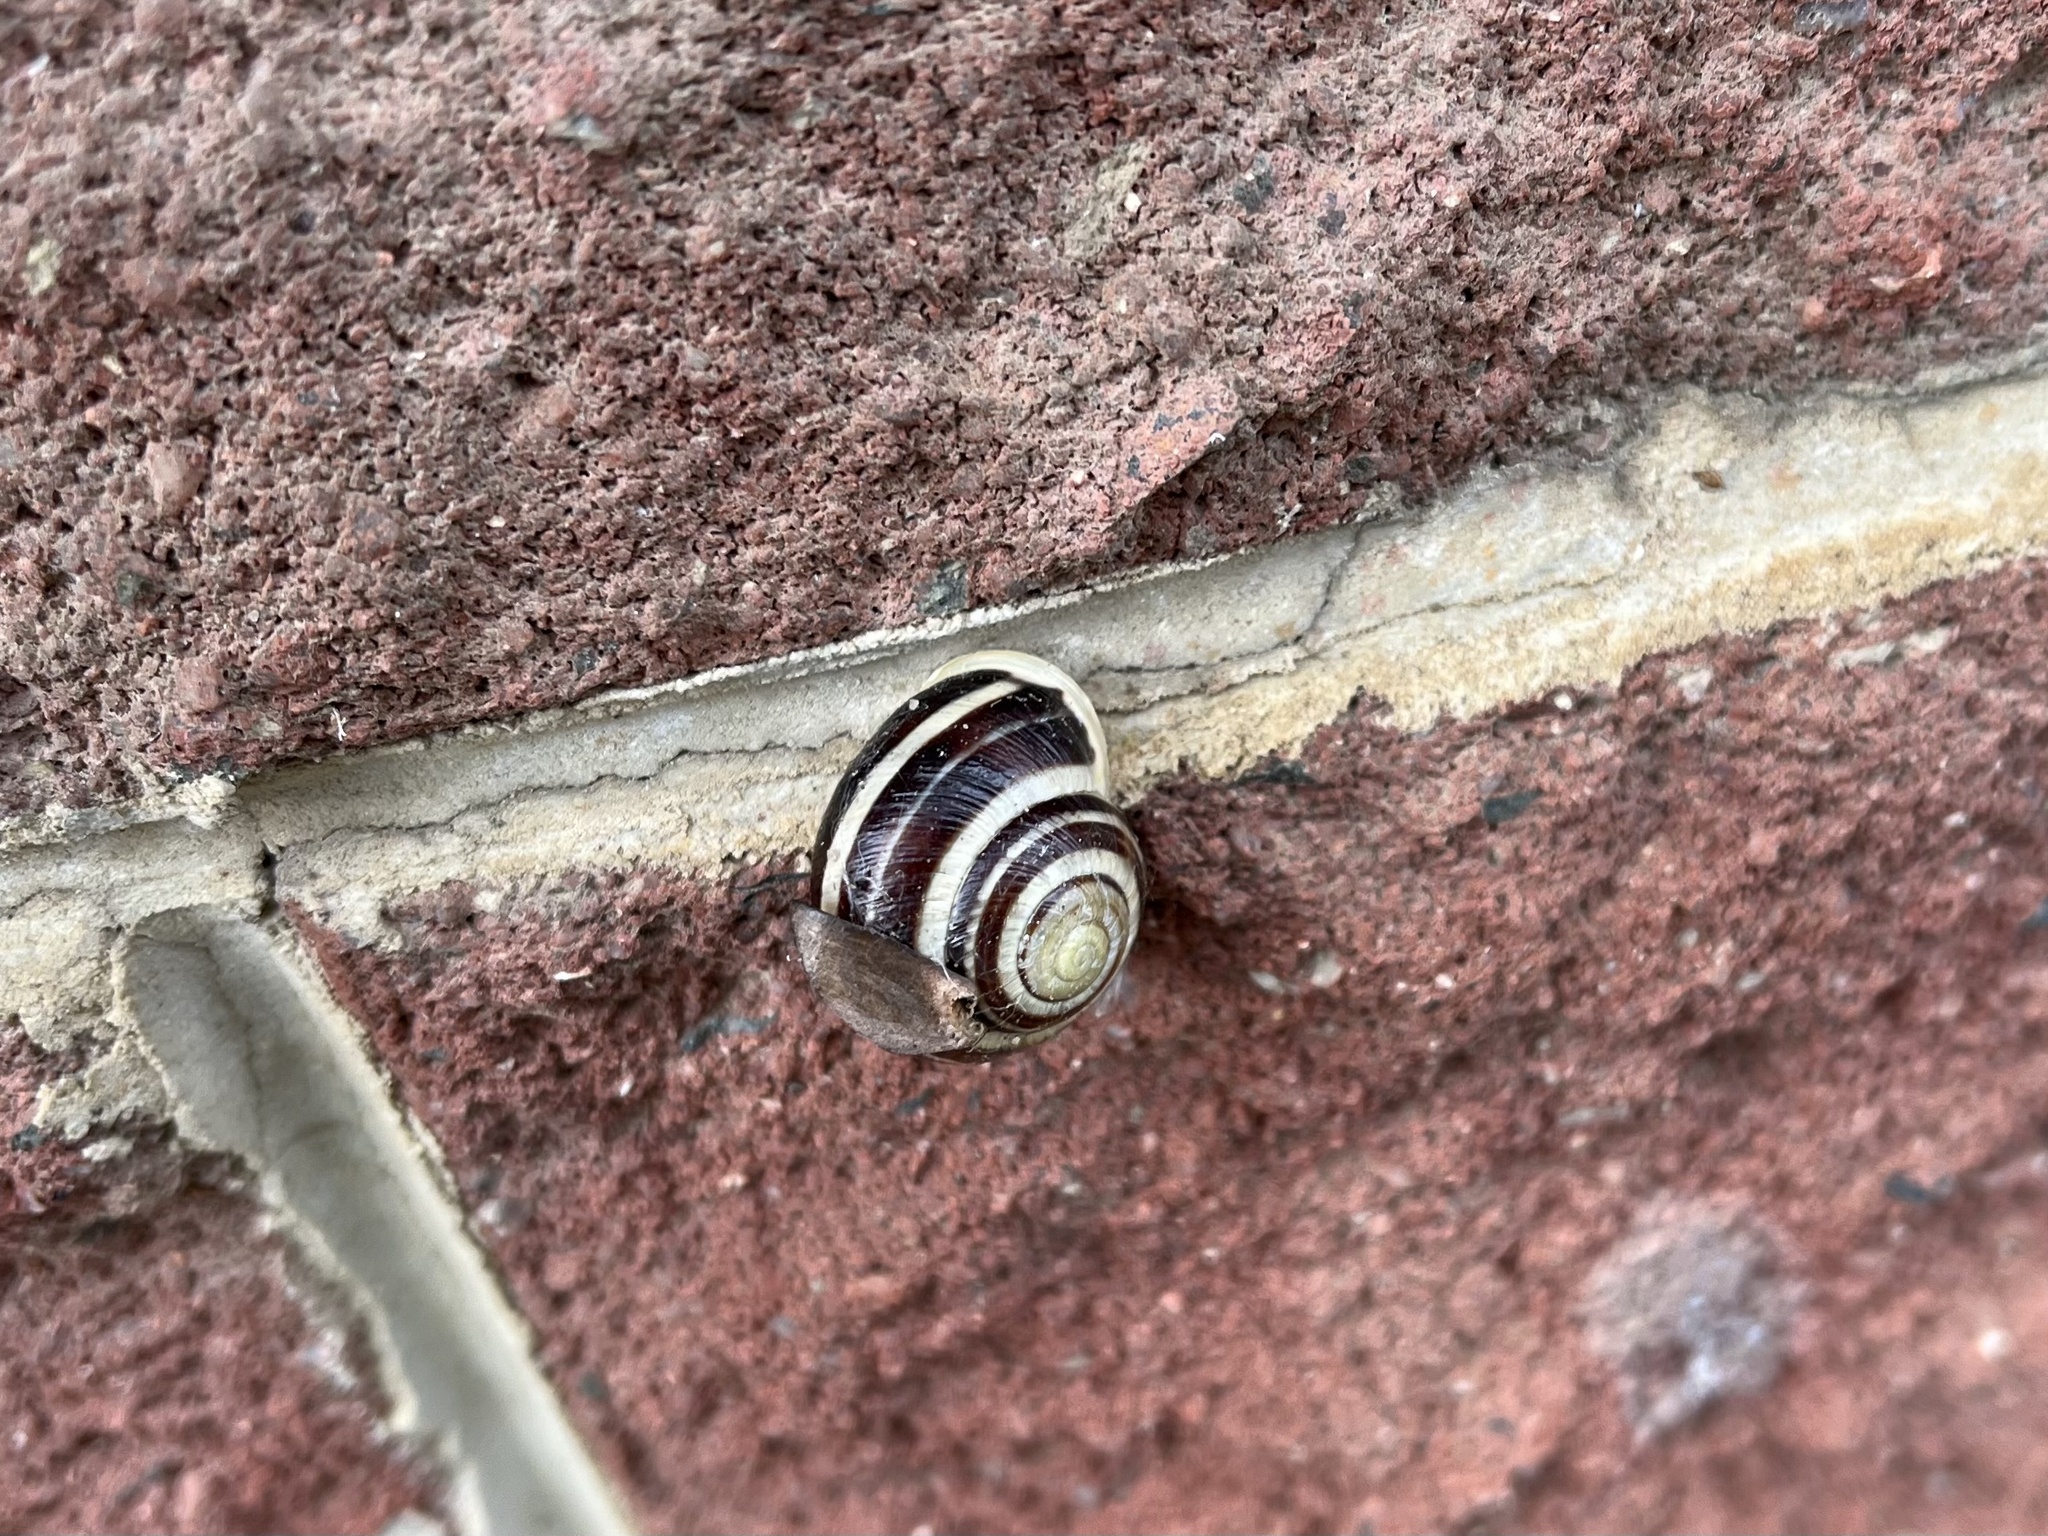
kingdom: Animalia
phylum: Mollusca
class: Gastropoda
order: Stylommatophora
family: Helicidae
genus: Cepaea
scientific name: Cepaea hortensis
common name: White-lip gardensnail
